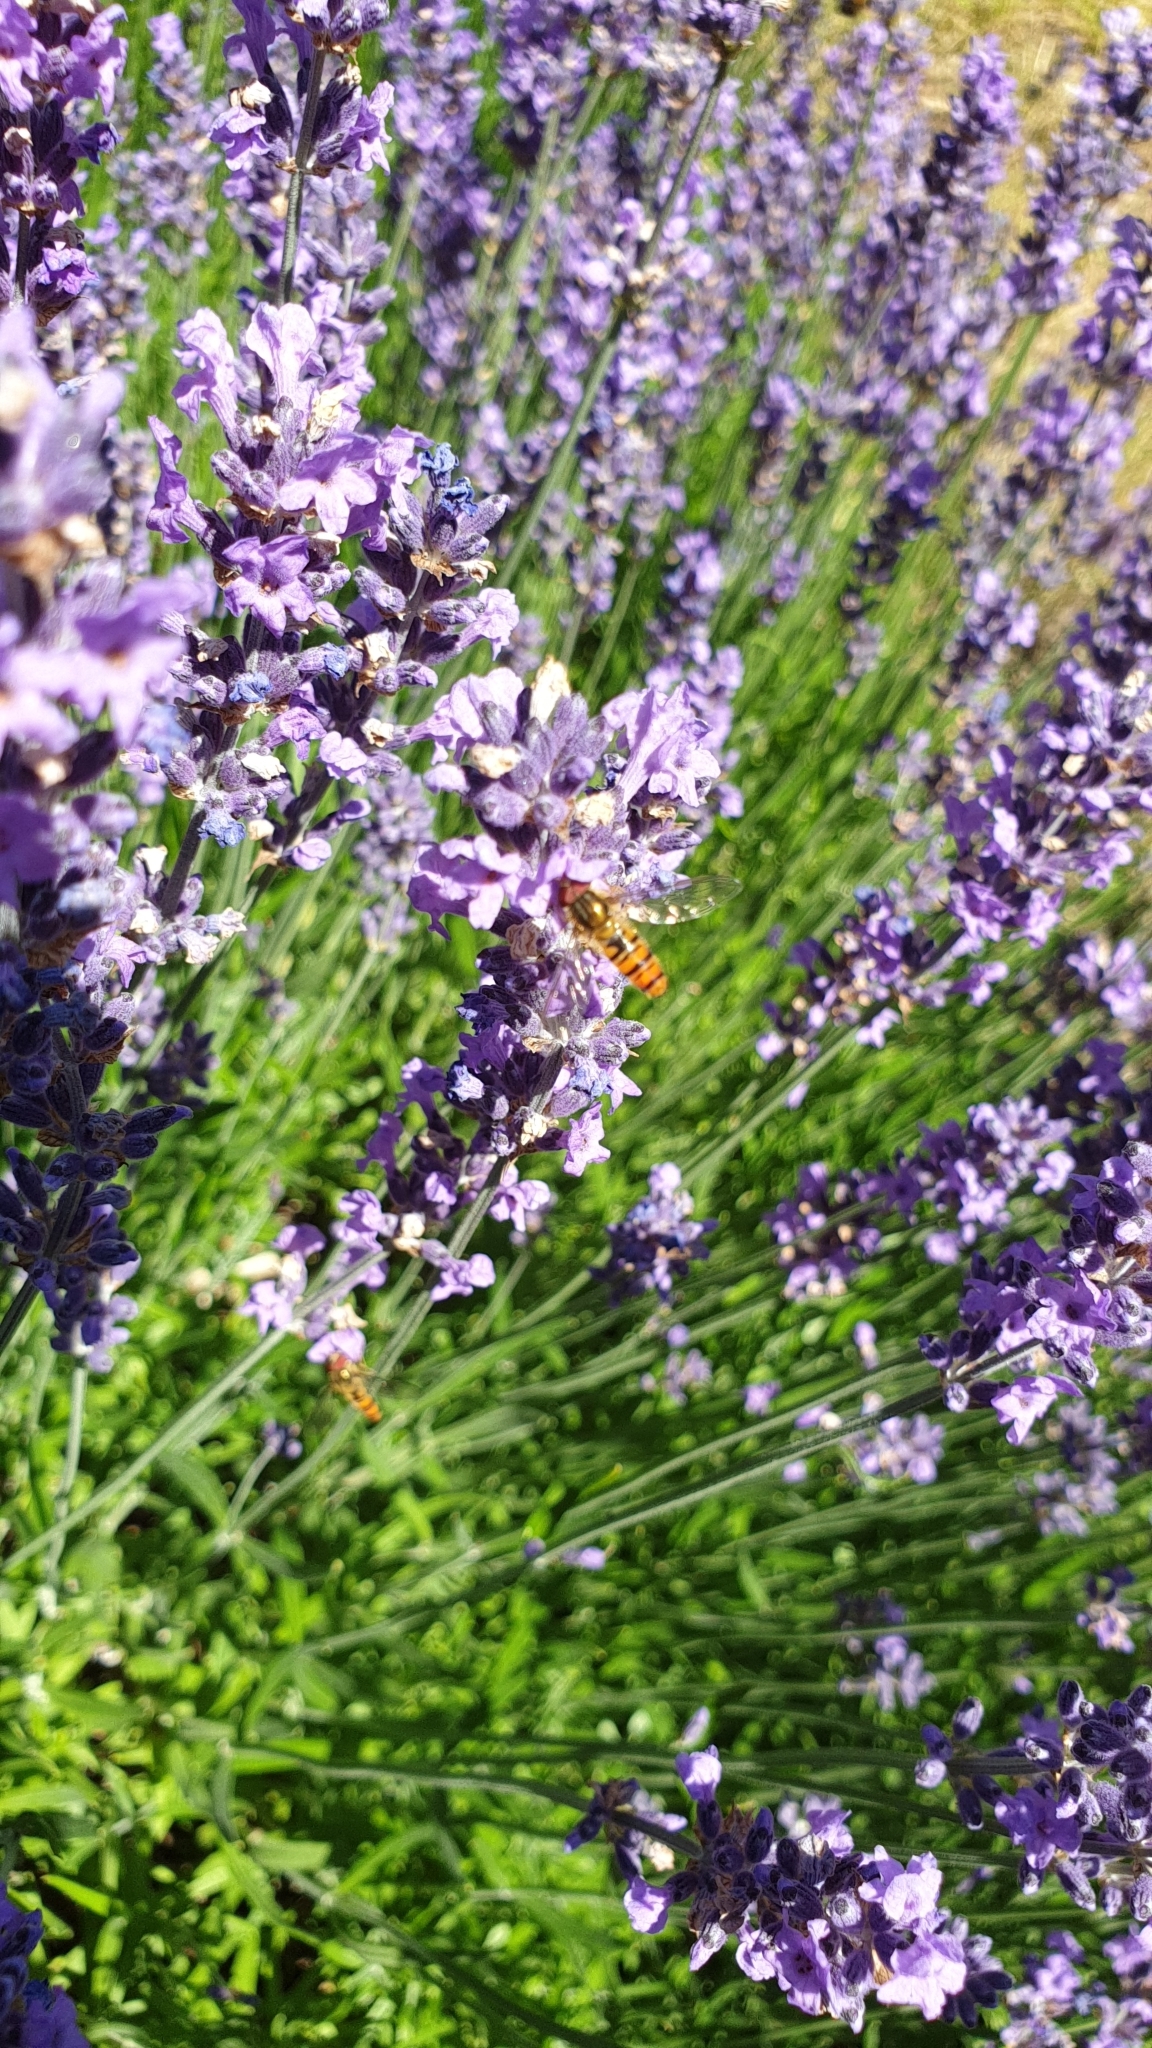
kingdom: Animalia
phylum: Arthropoda
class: Insecta
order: Diptera
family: Syrphidae
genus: Episyrphus
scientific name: Episyrphus balteatus
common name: Marmalade hoverfly
